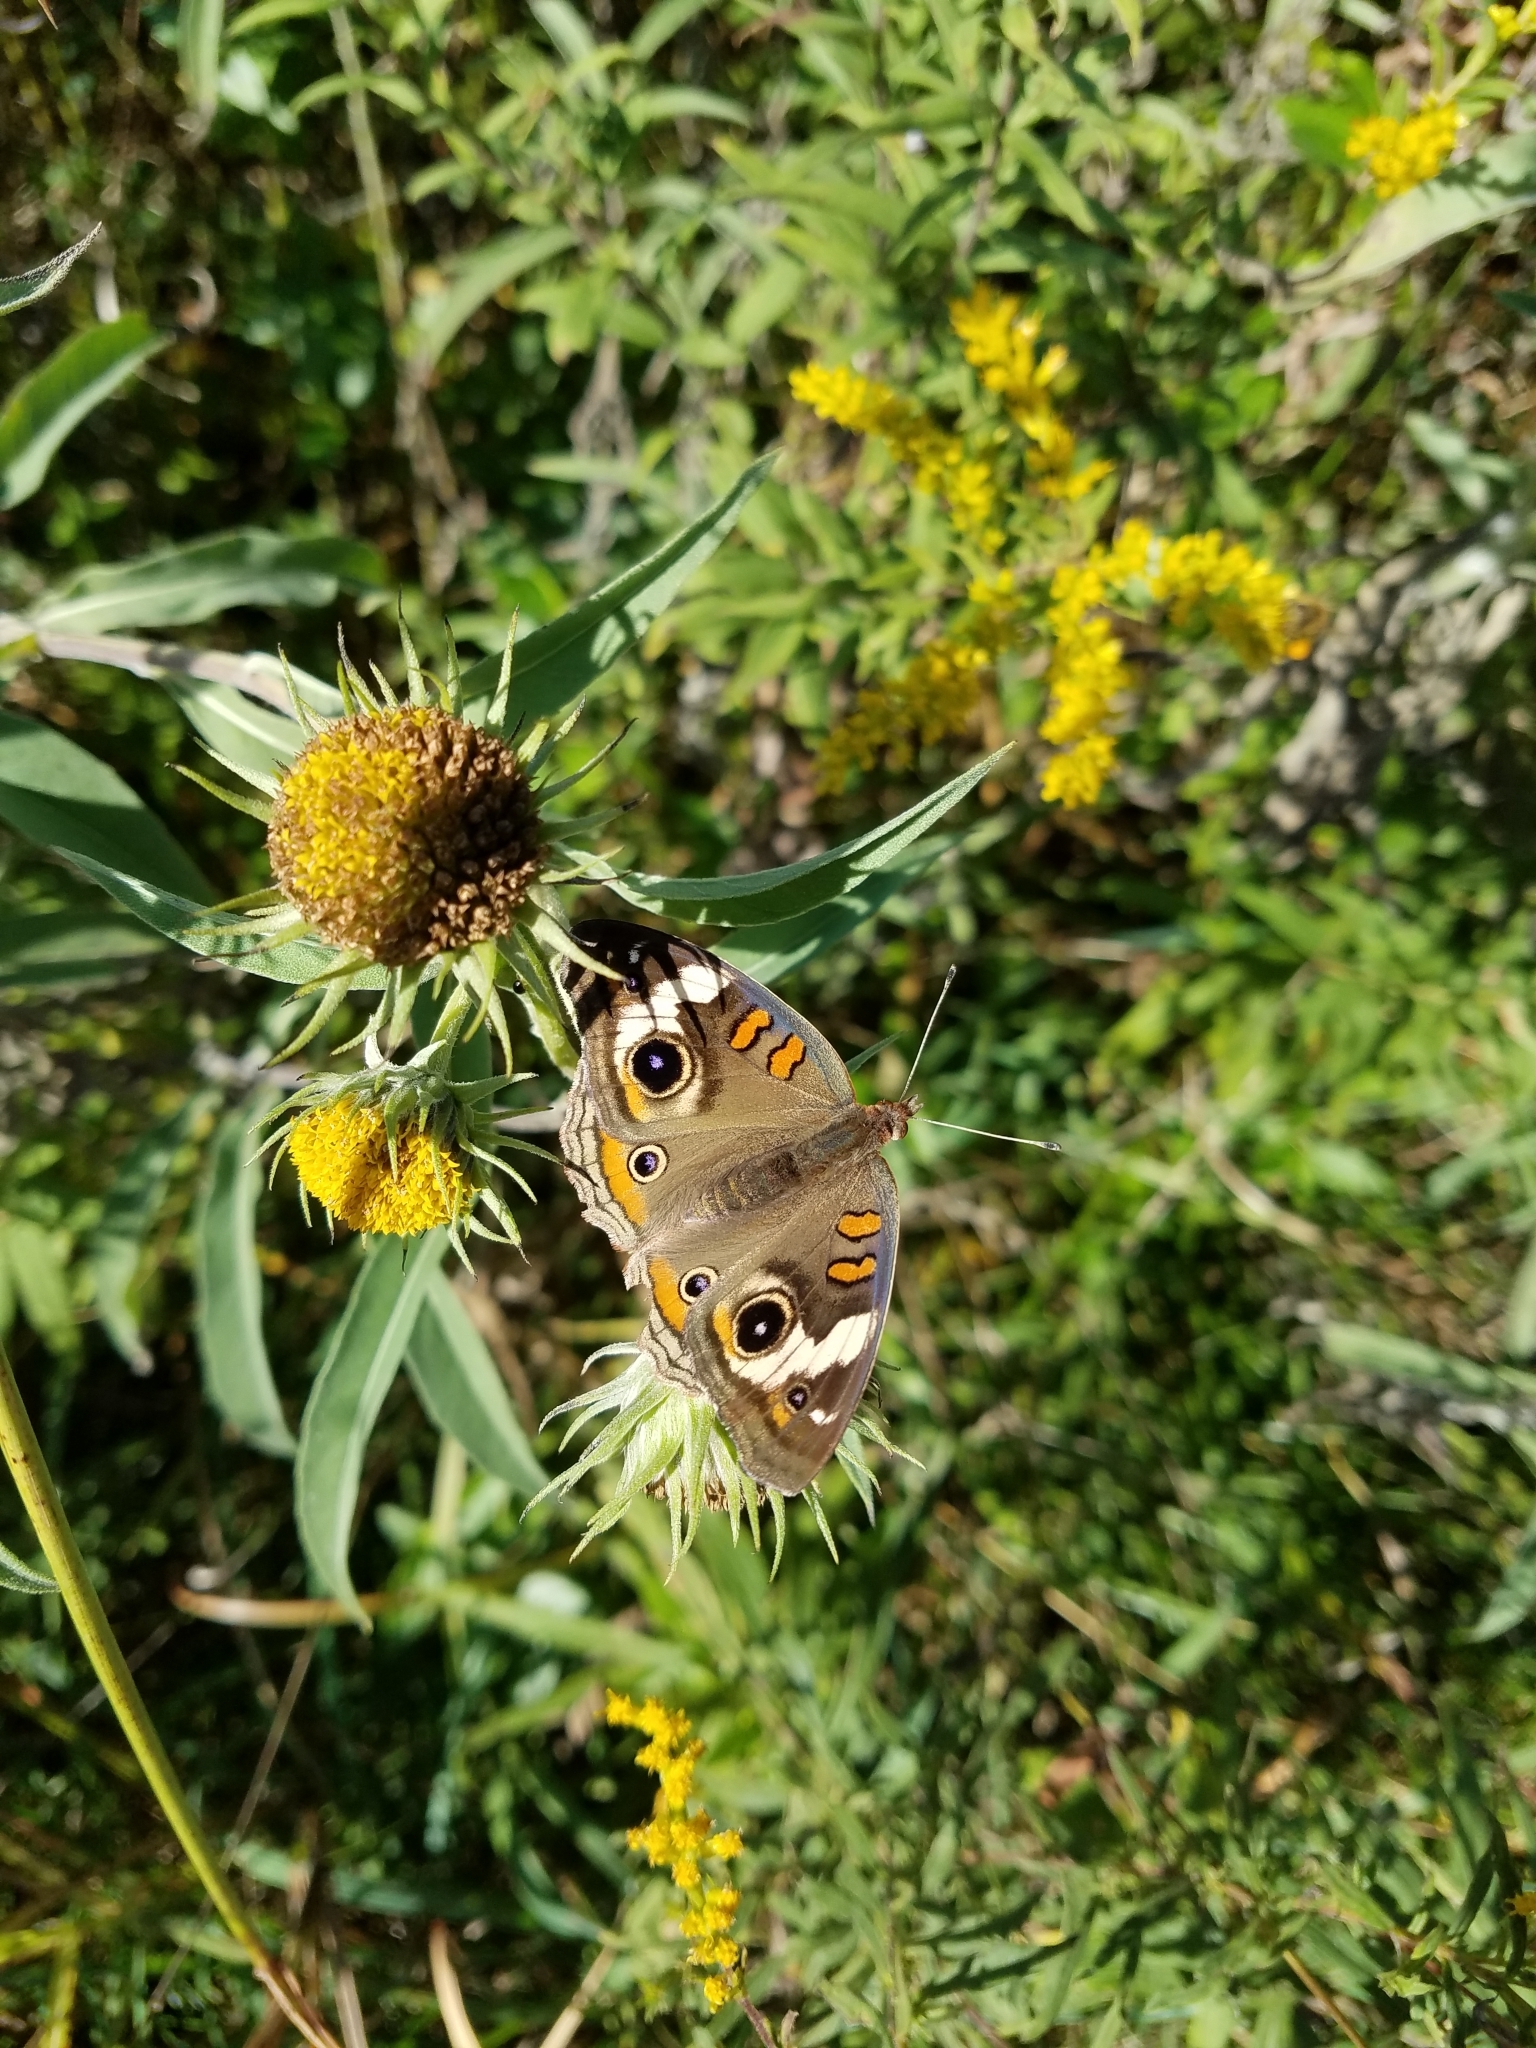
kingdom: Animalia
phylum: Arthropoda
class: Insecta
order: Lepidoptera
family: Nymphalidae
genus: Junonia
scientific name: Junonia coenia
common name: Common buckeye
